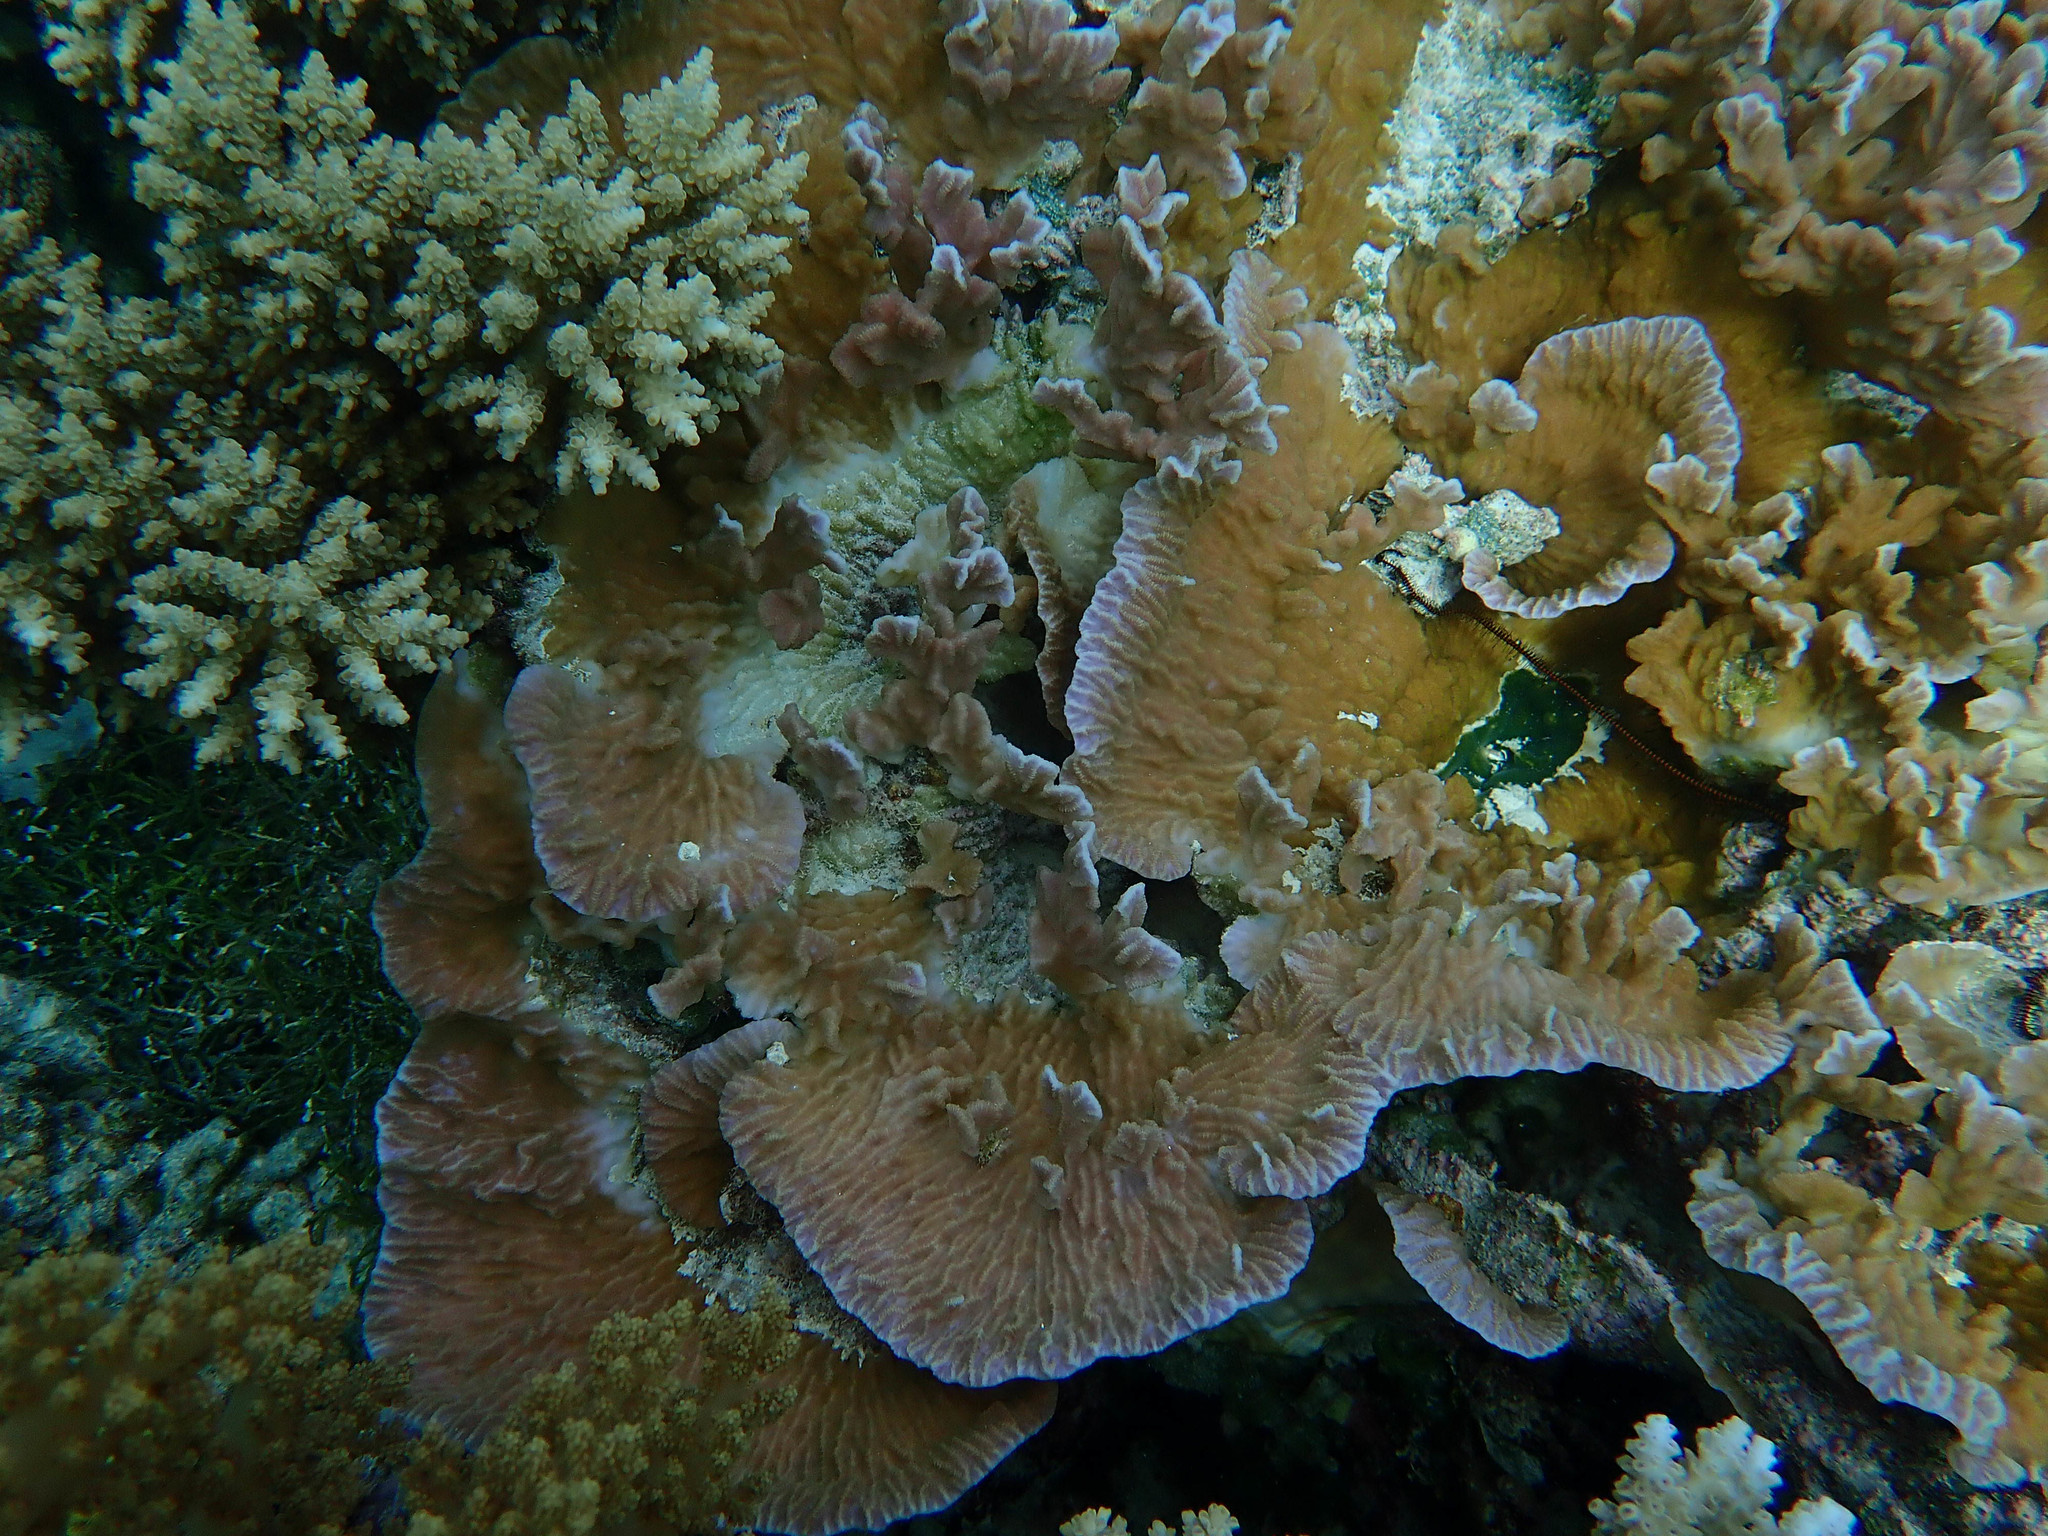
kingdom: Animalia
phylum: Cnidaria
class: Anthozoa
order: Scleractinia
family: Merulinidae
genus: Merulina
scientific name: Merulina scabricula
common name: Crispy crust coral
